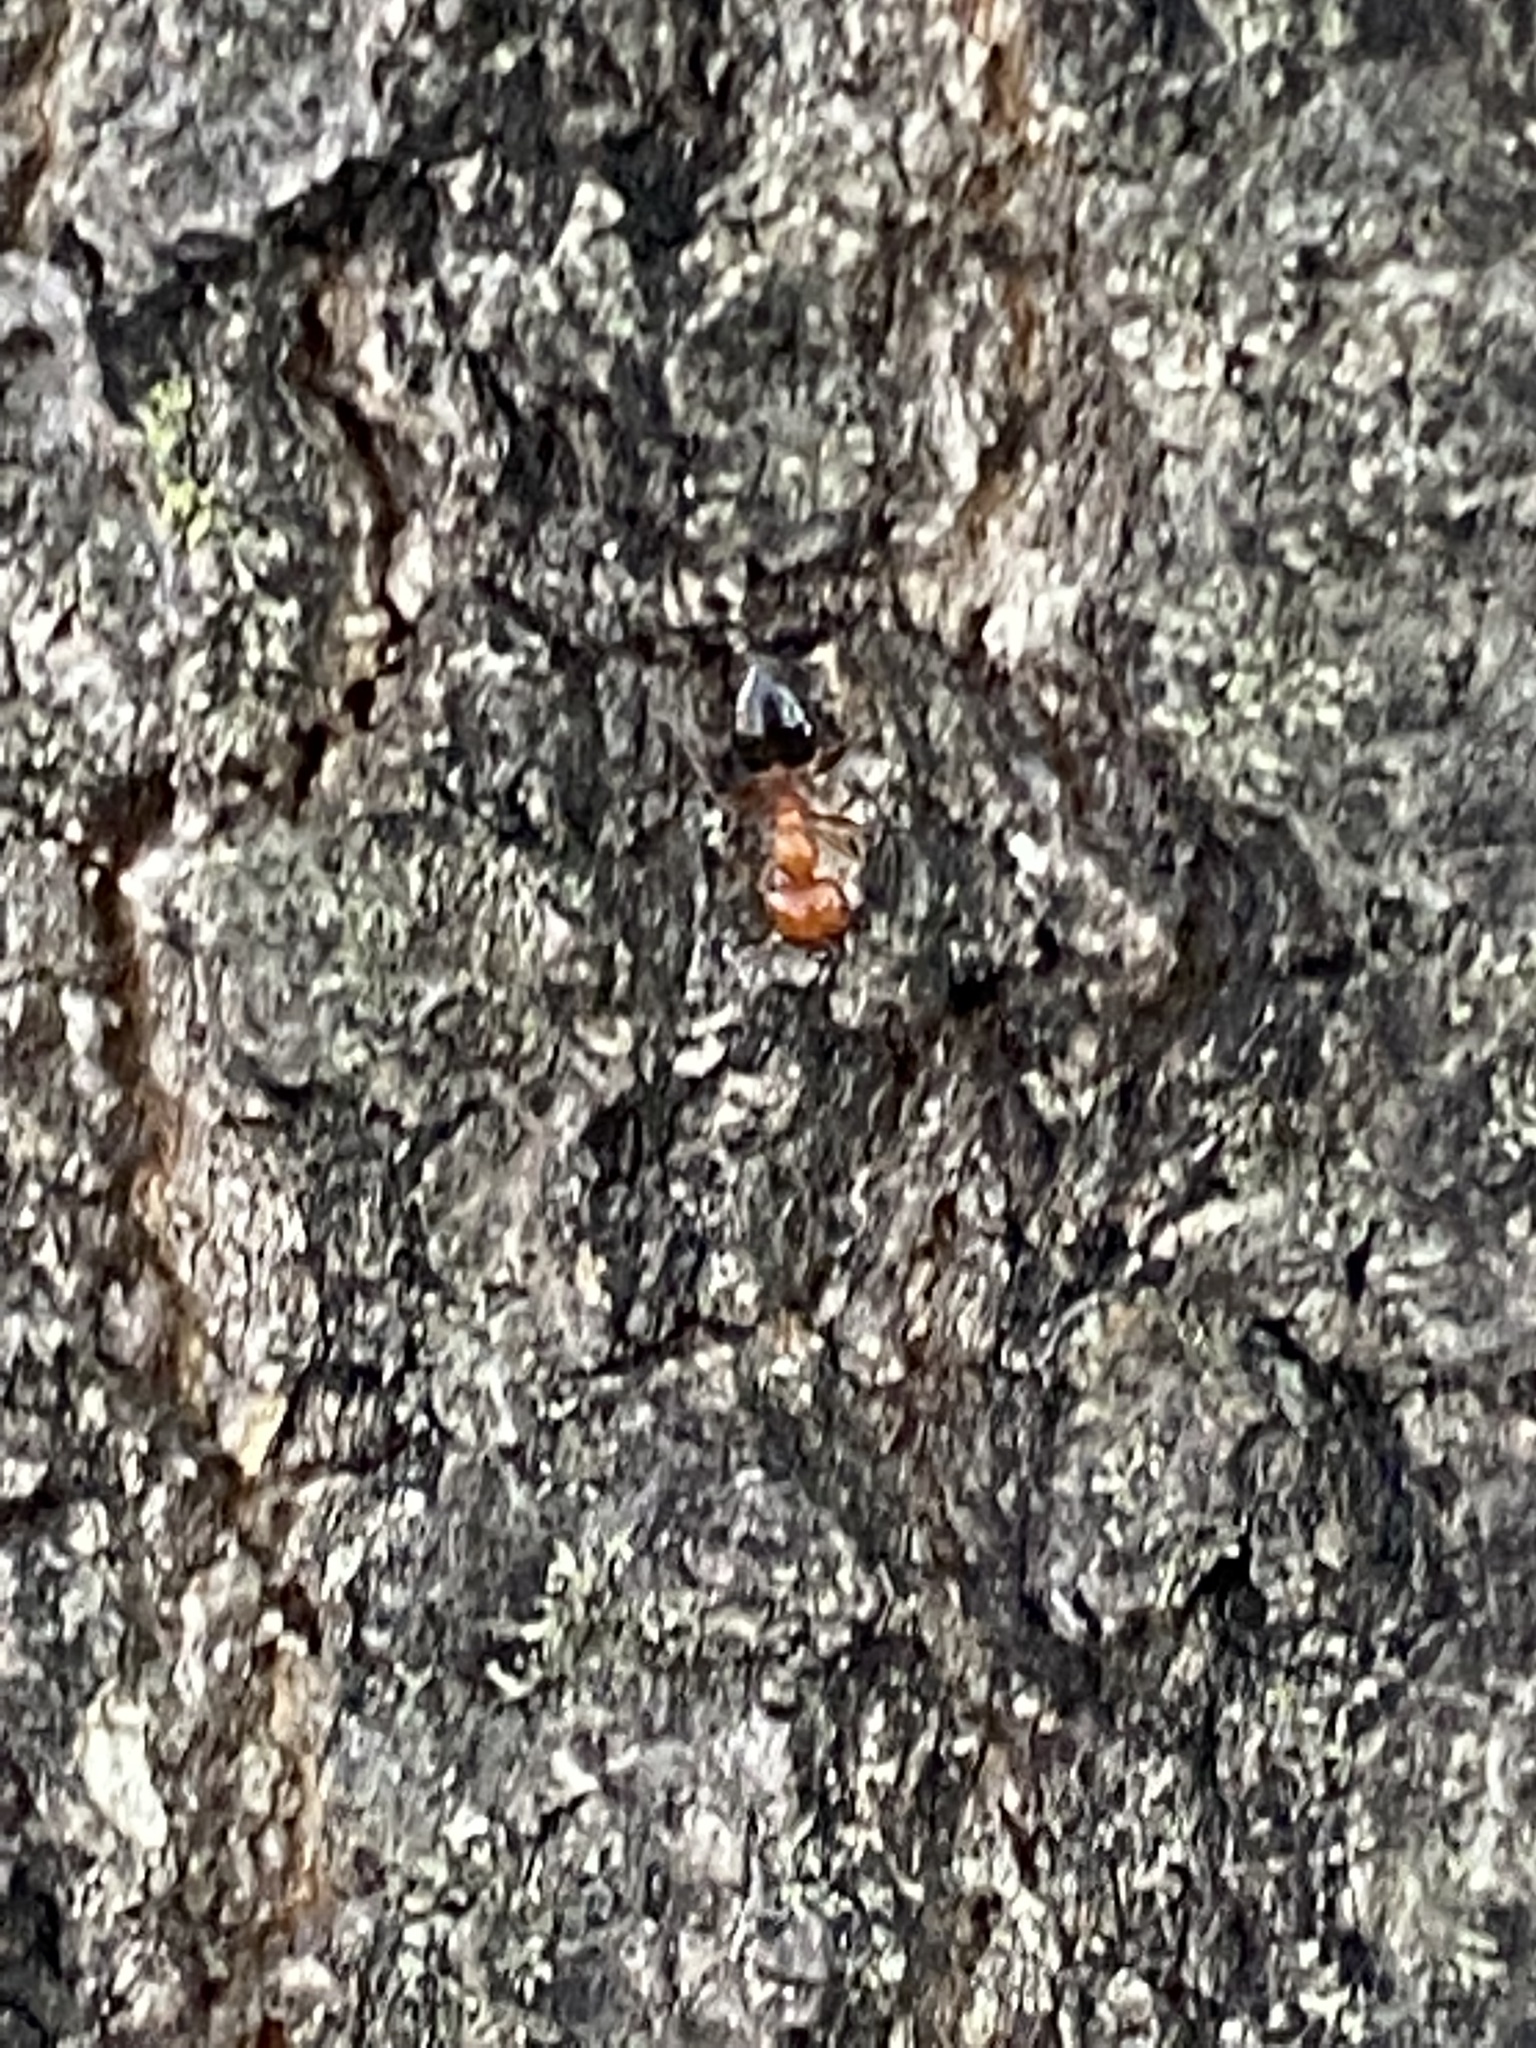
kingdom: Animalia
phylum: Arthropoda
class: Insecta
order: Hymenoptera
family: Formicidae
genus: Crematogaster
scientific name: Crematogaster laeviuscula
